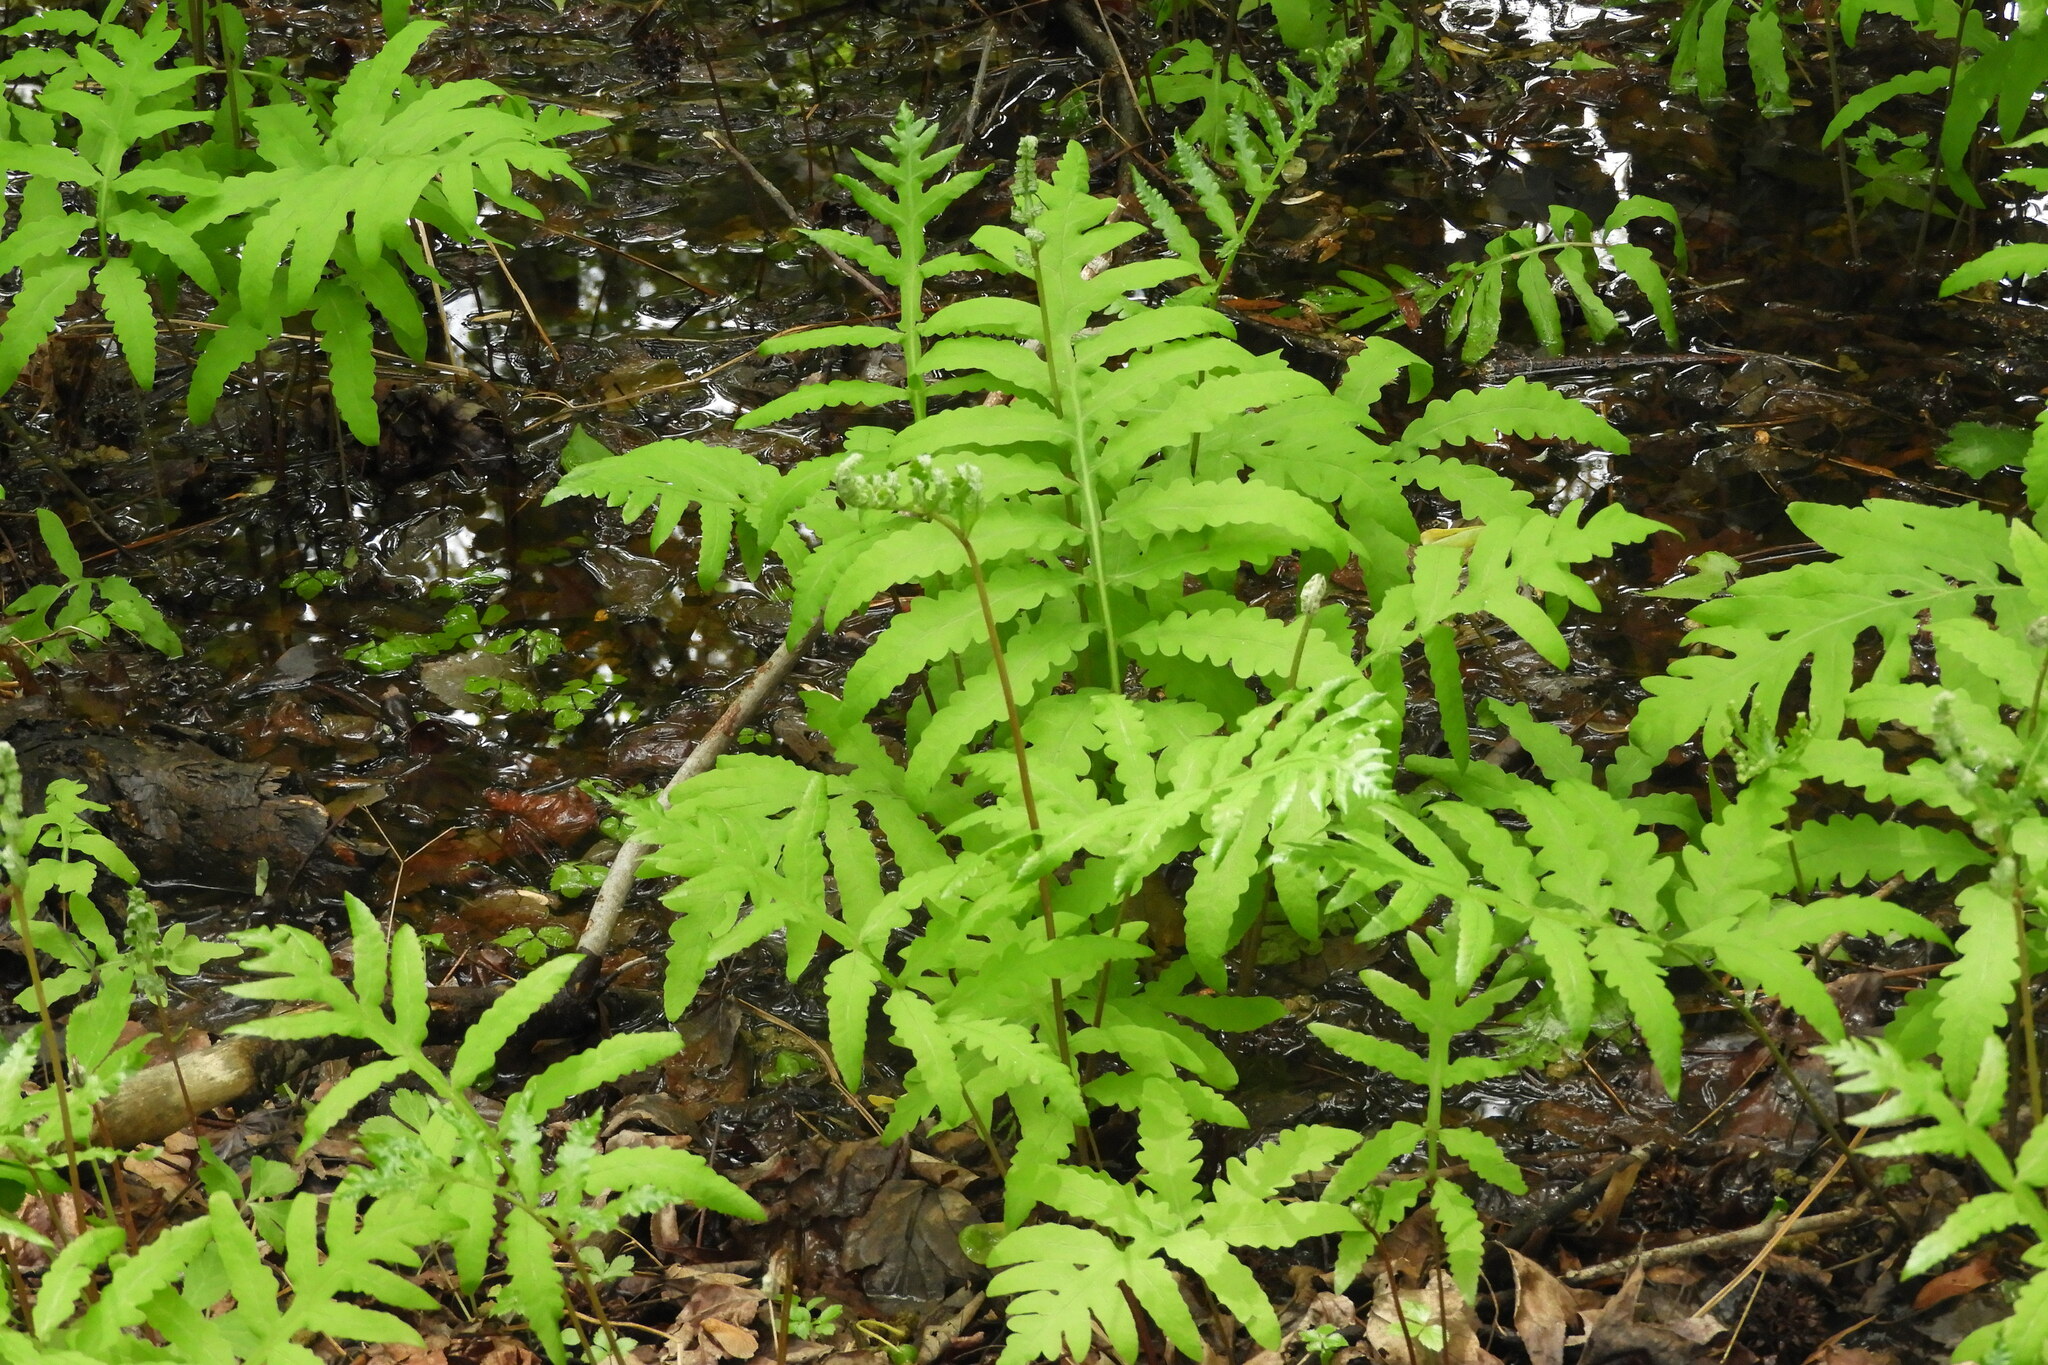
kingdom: Plantae
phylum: Tracheophyta
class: Polypodiopsida
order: Polypodiales
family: Onocleaceae
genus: Onoclea
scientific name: Onoclea sensibilis
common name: Sensitive fern
